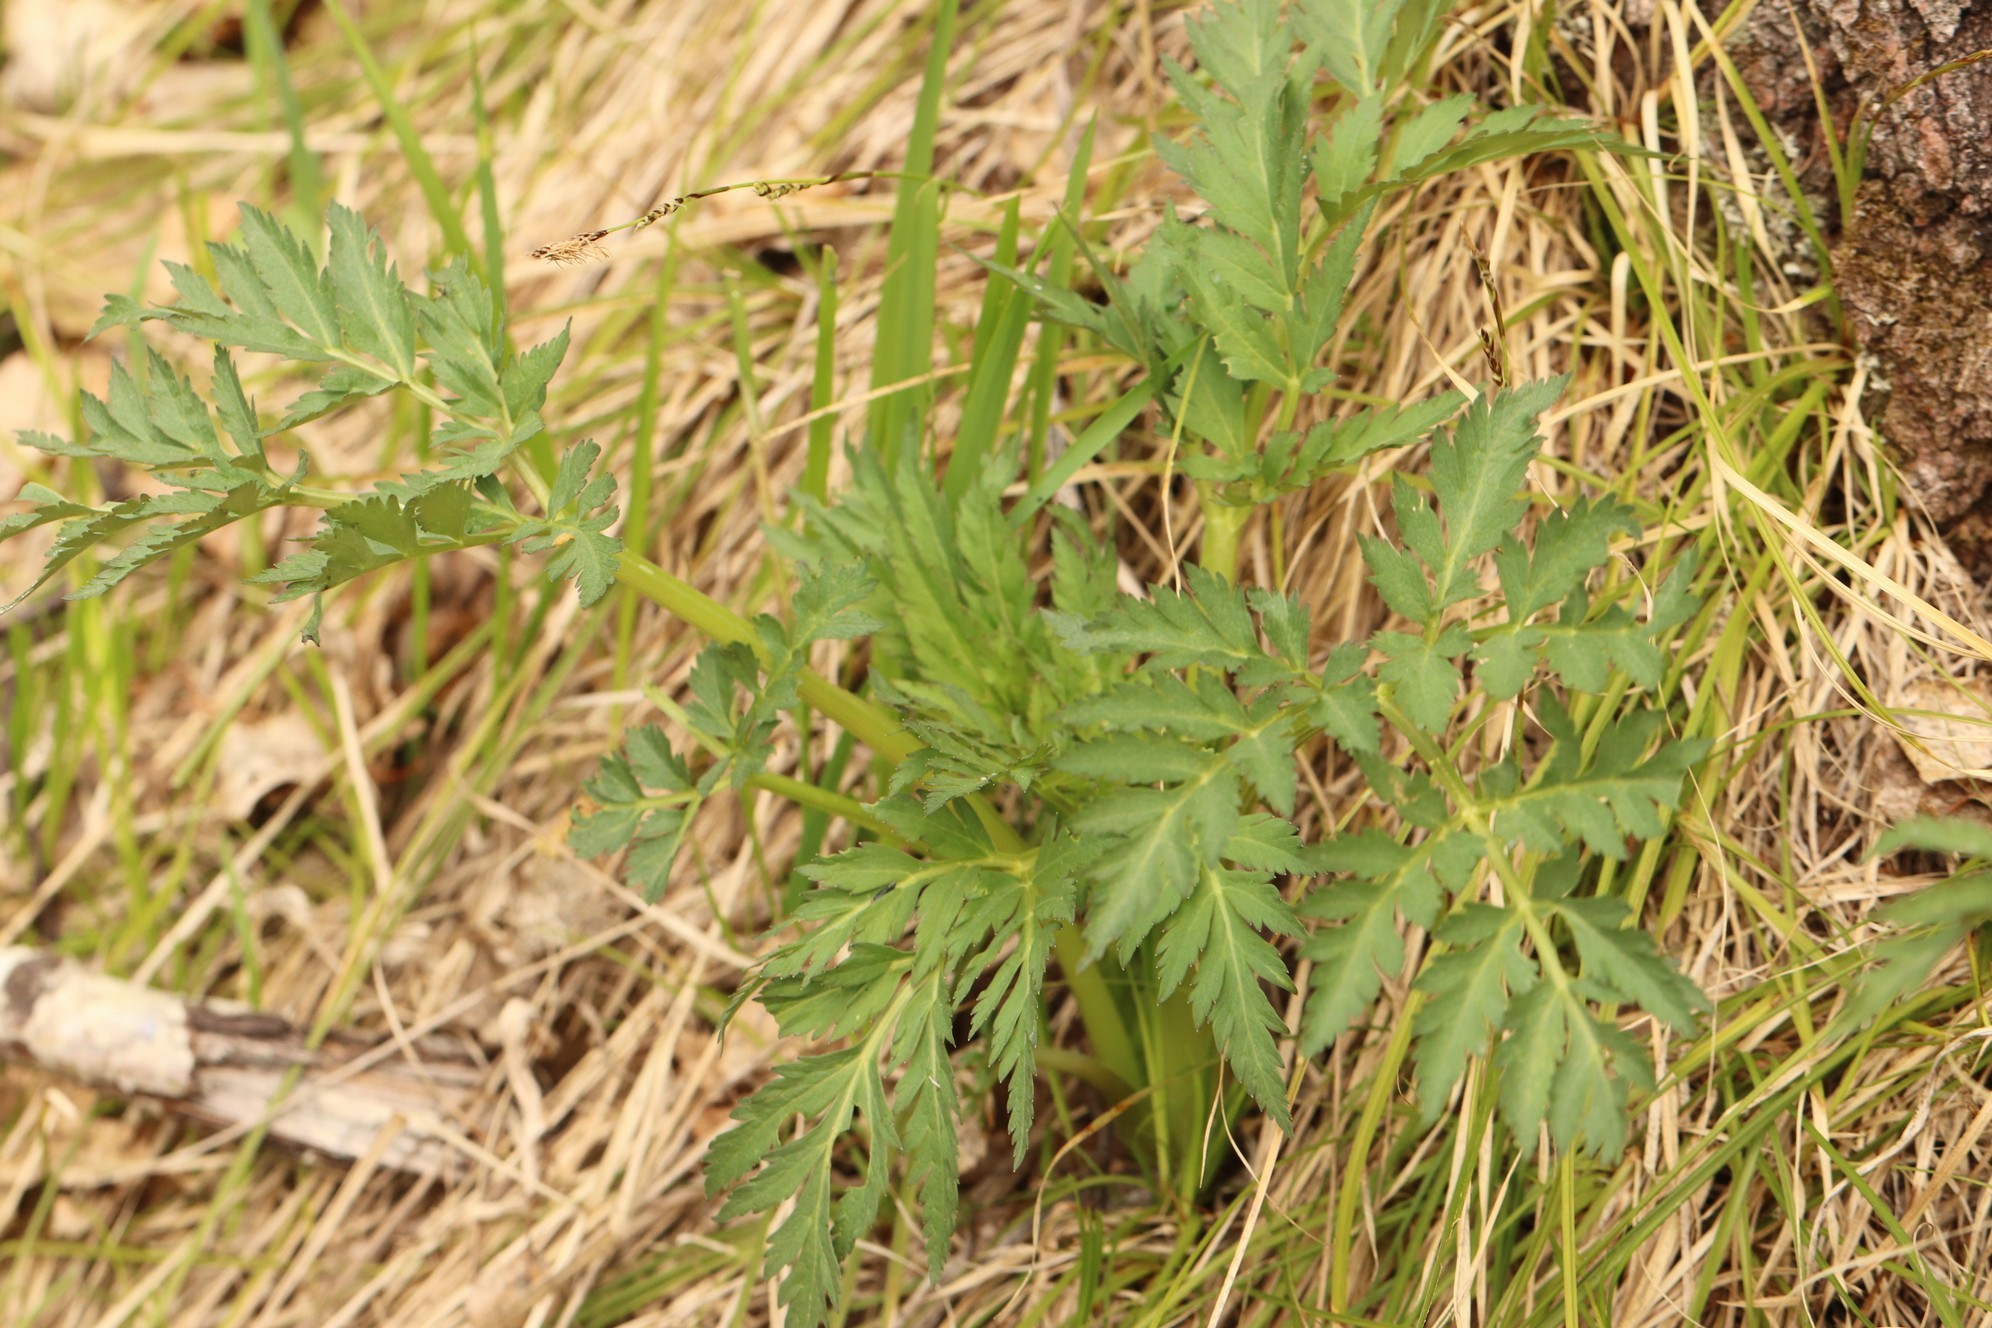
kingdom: Plantae
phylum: Tracheophyta
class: Magnoliopsida
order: Apiales
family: Apiaceae
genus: Pleurospermum
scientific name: Pleurospermum uralense
